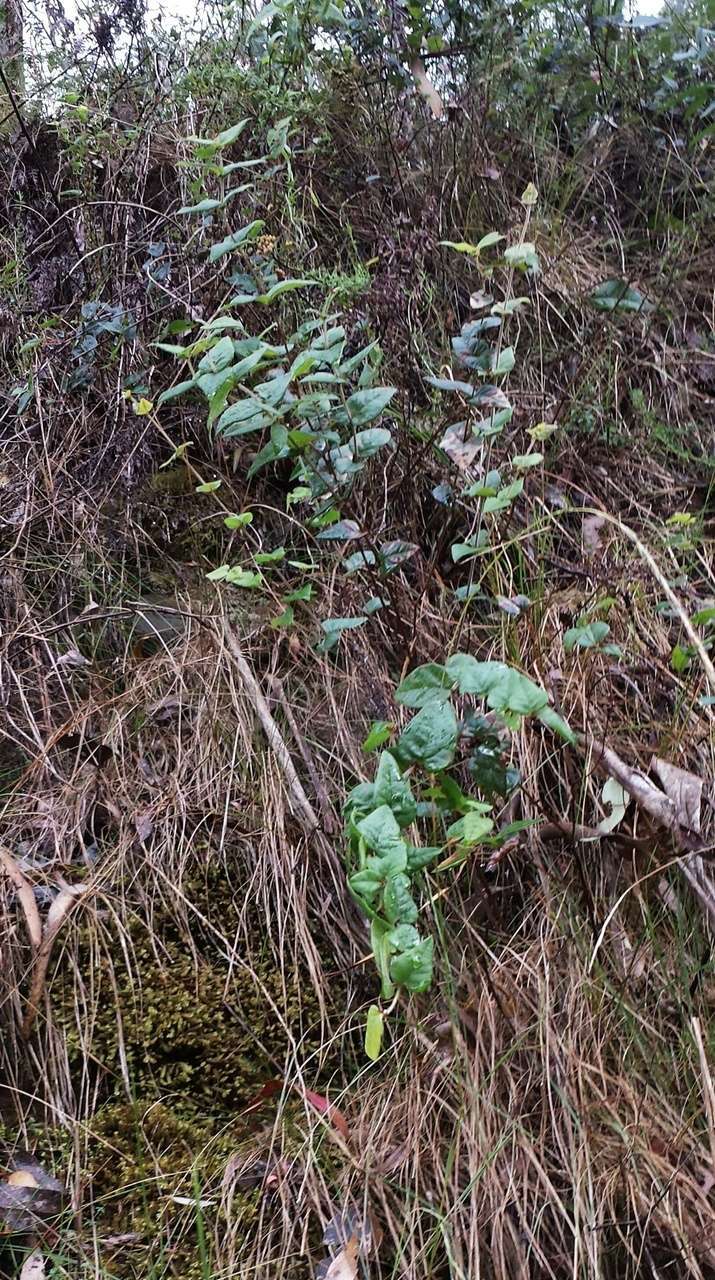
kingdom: Plantae
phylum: Tracheophyta
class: Magnoliopsida
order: Fabales
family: Fabaceae
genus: Platylobium
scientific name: Platylobium montanum
